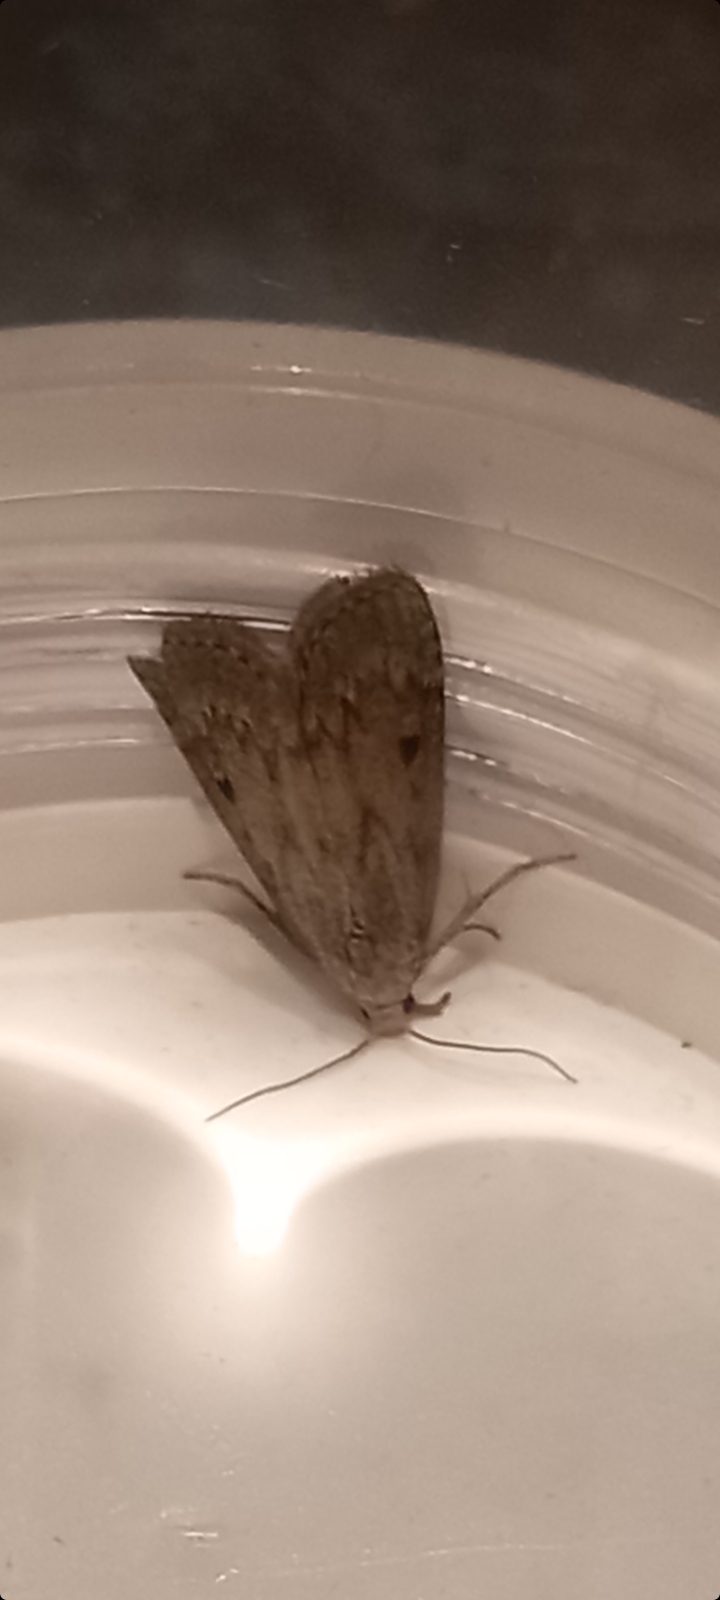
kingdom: Animalia
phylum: Arthropoda
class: Insecta
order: Lepidoptera
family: Pyralidae
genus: Aphomia
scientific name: Aphomia sociella
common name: Bee moth
